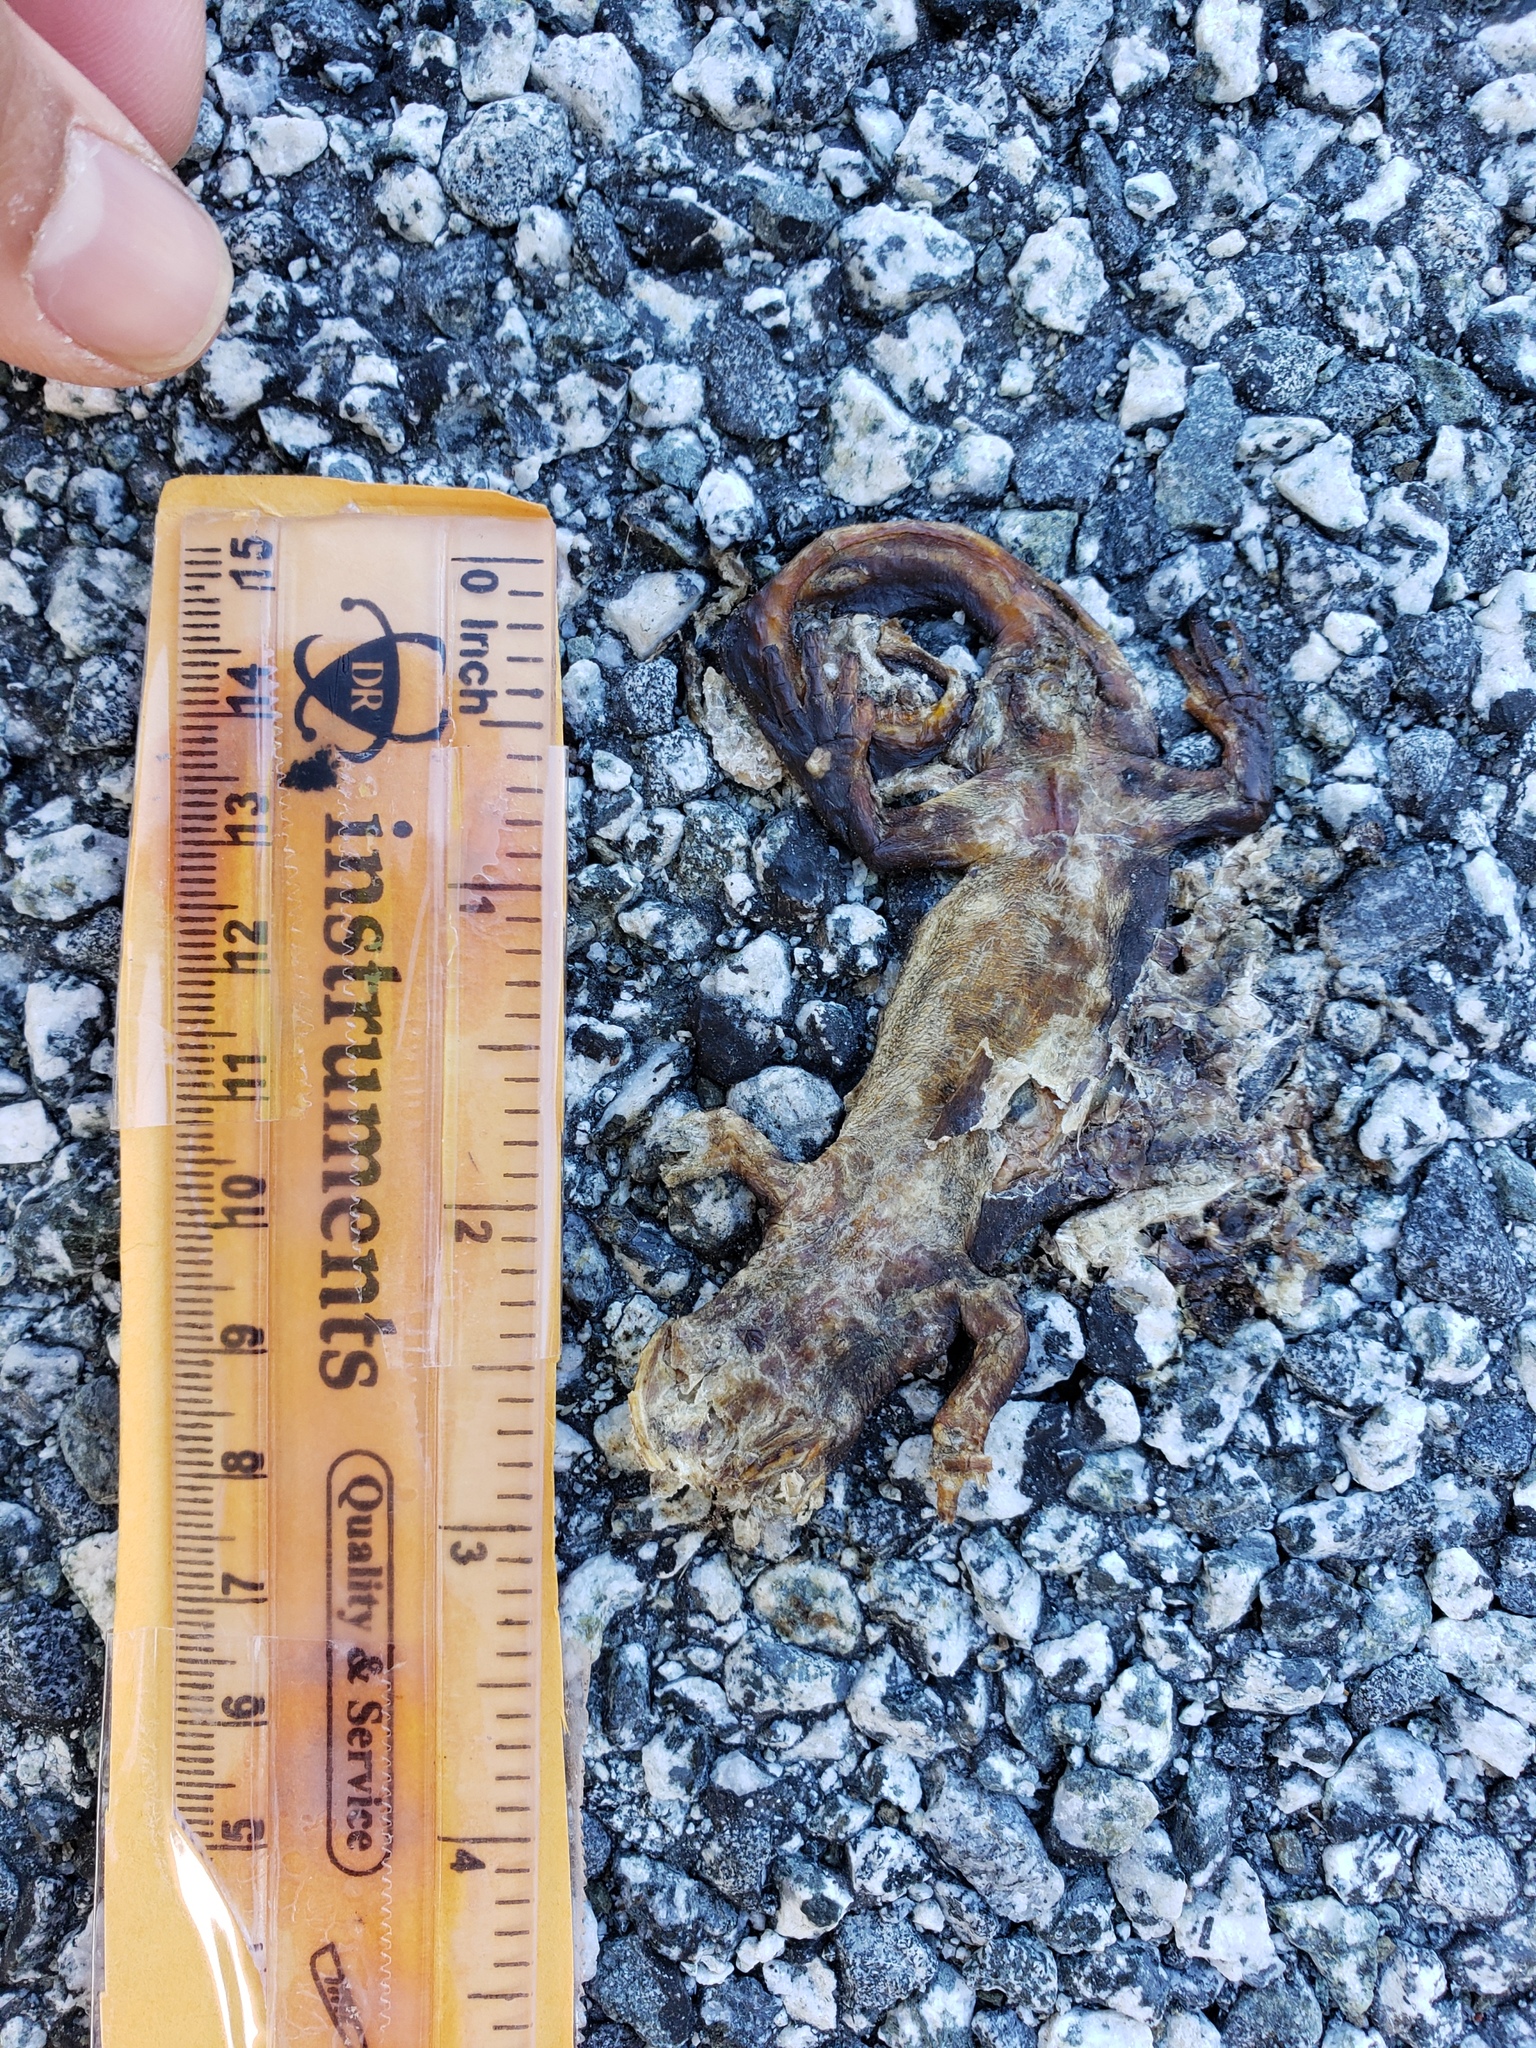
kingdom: Animalia
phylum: Chordata
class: Amphibia
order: Caudata
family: Salamandridae
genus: Taricha
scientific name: Taricha
